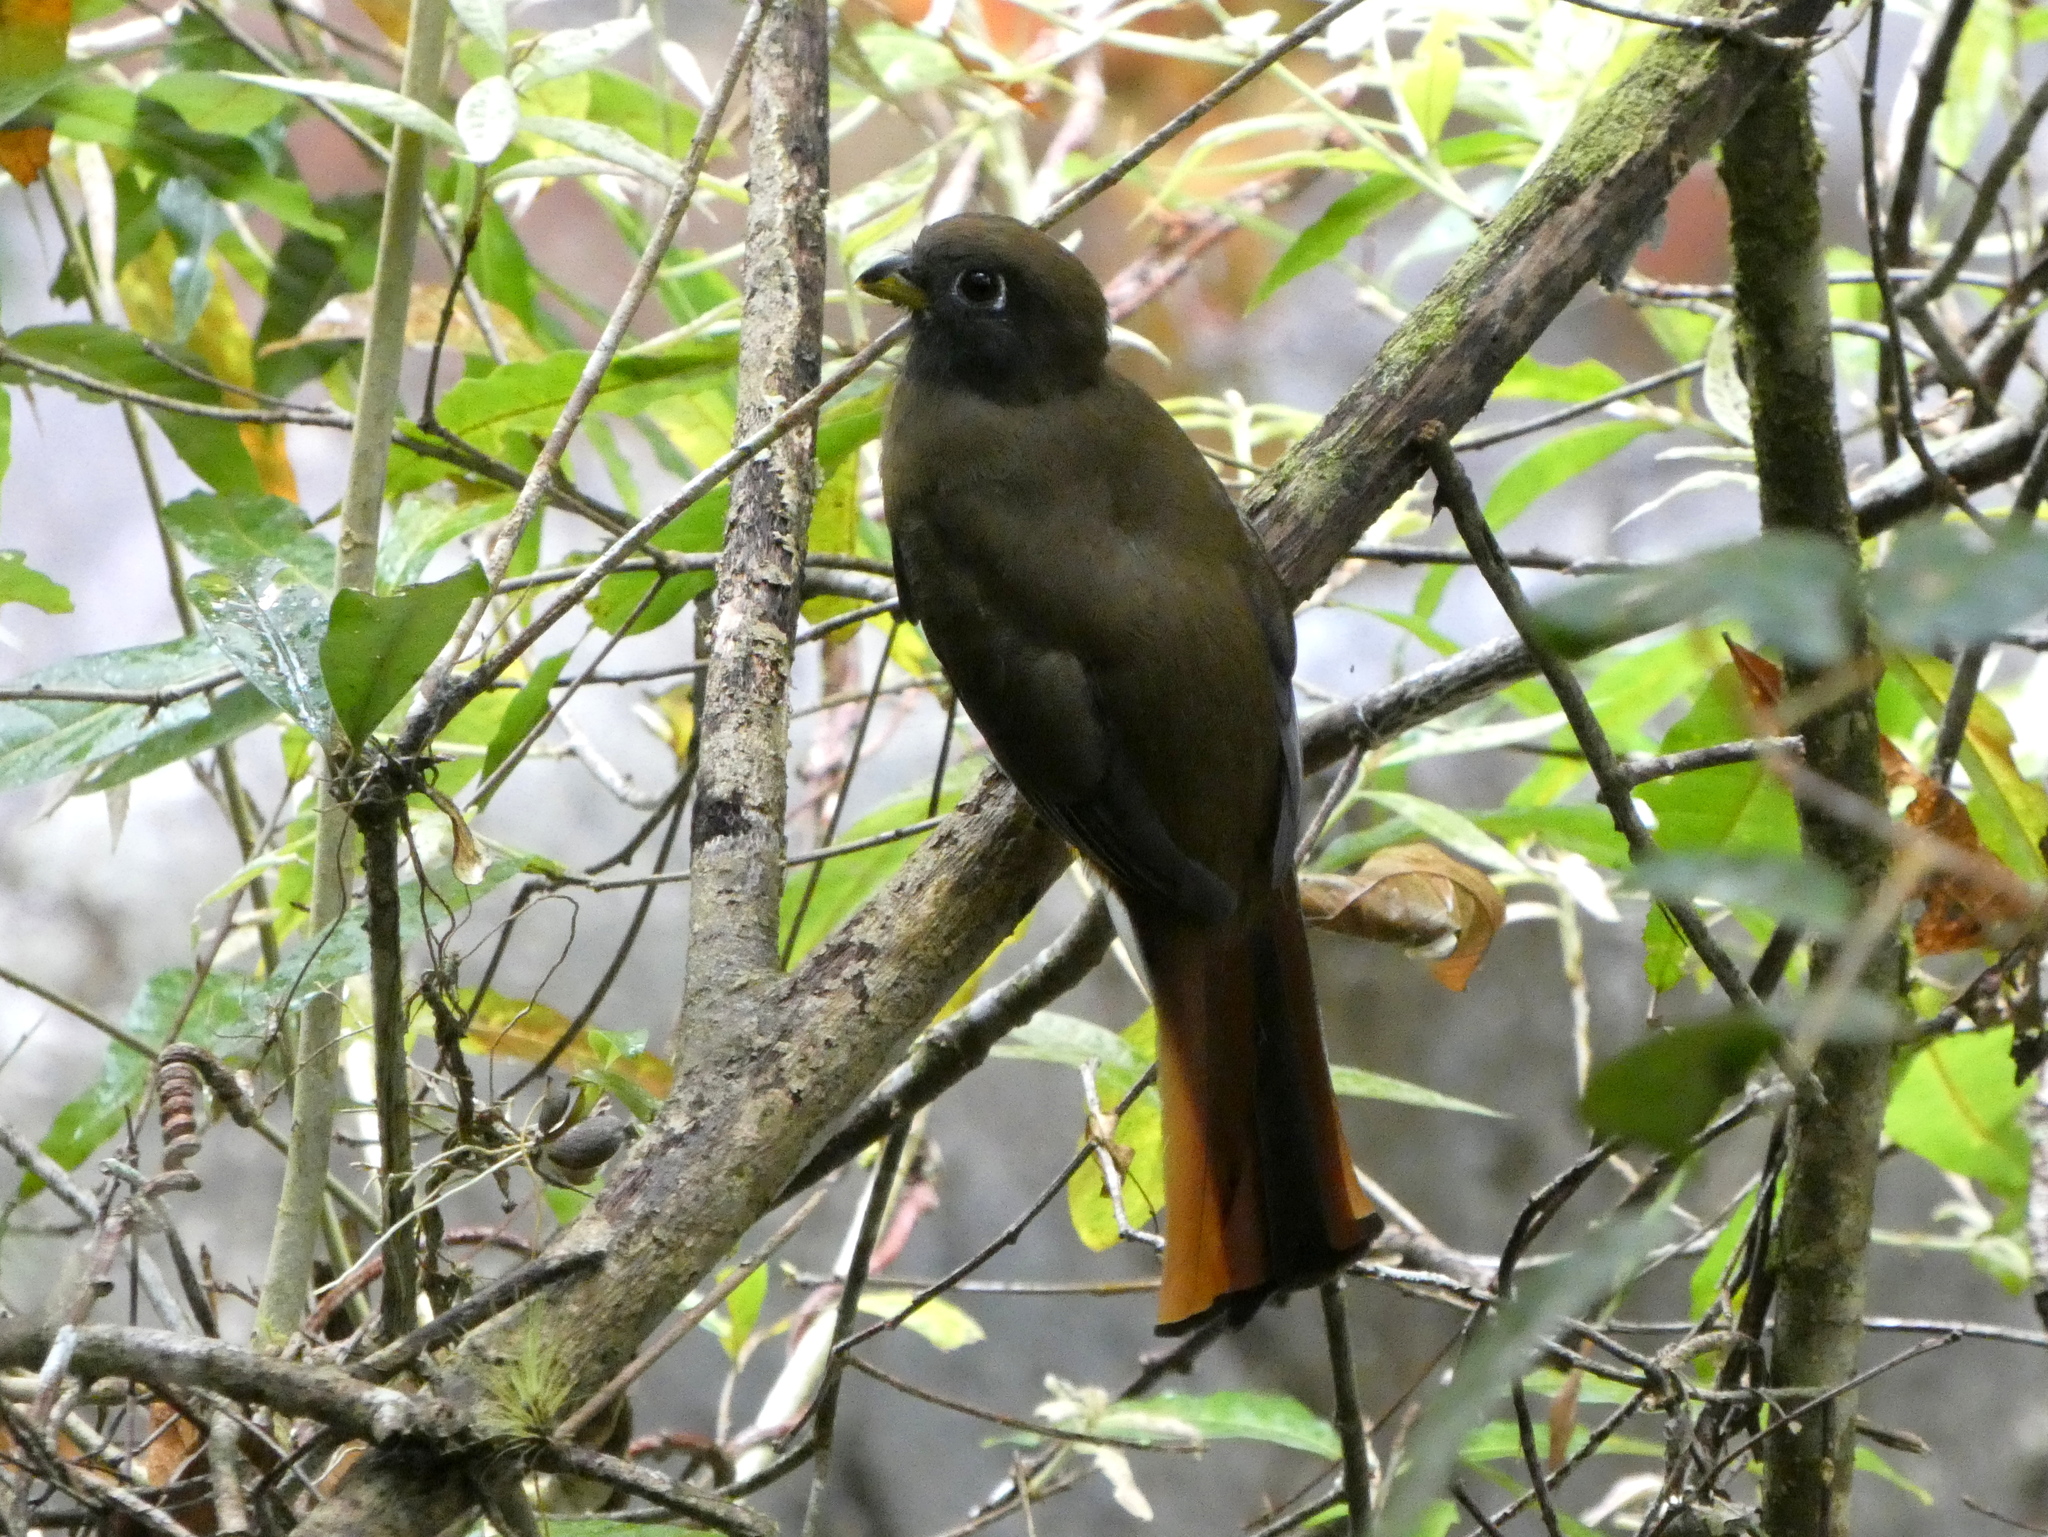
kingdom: Animalia
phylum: Chordata
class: Aves
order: Trogoniformes
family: Trogonidae
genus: Trogon
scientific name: Trogon rufus
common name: Black-throated trogon
